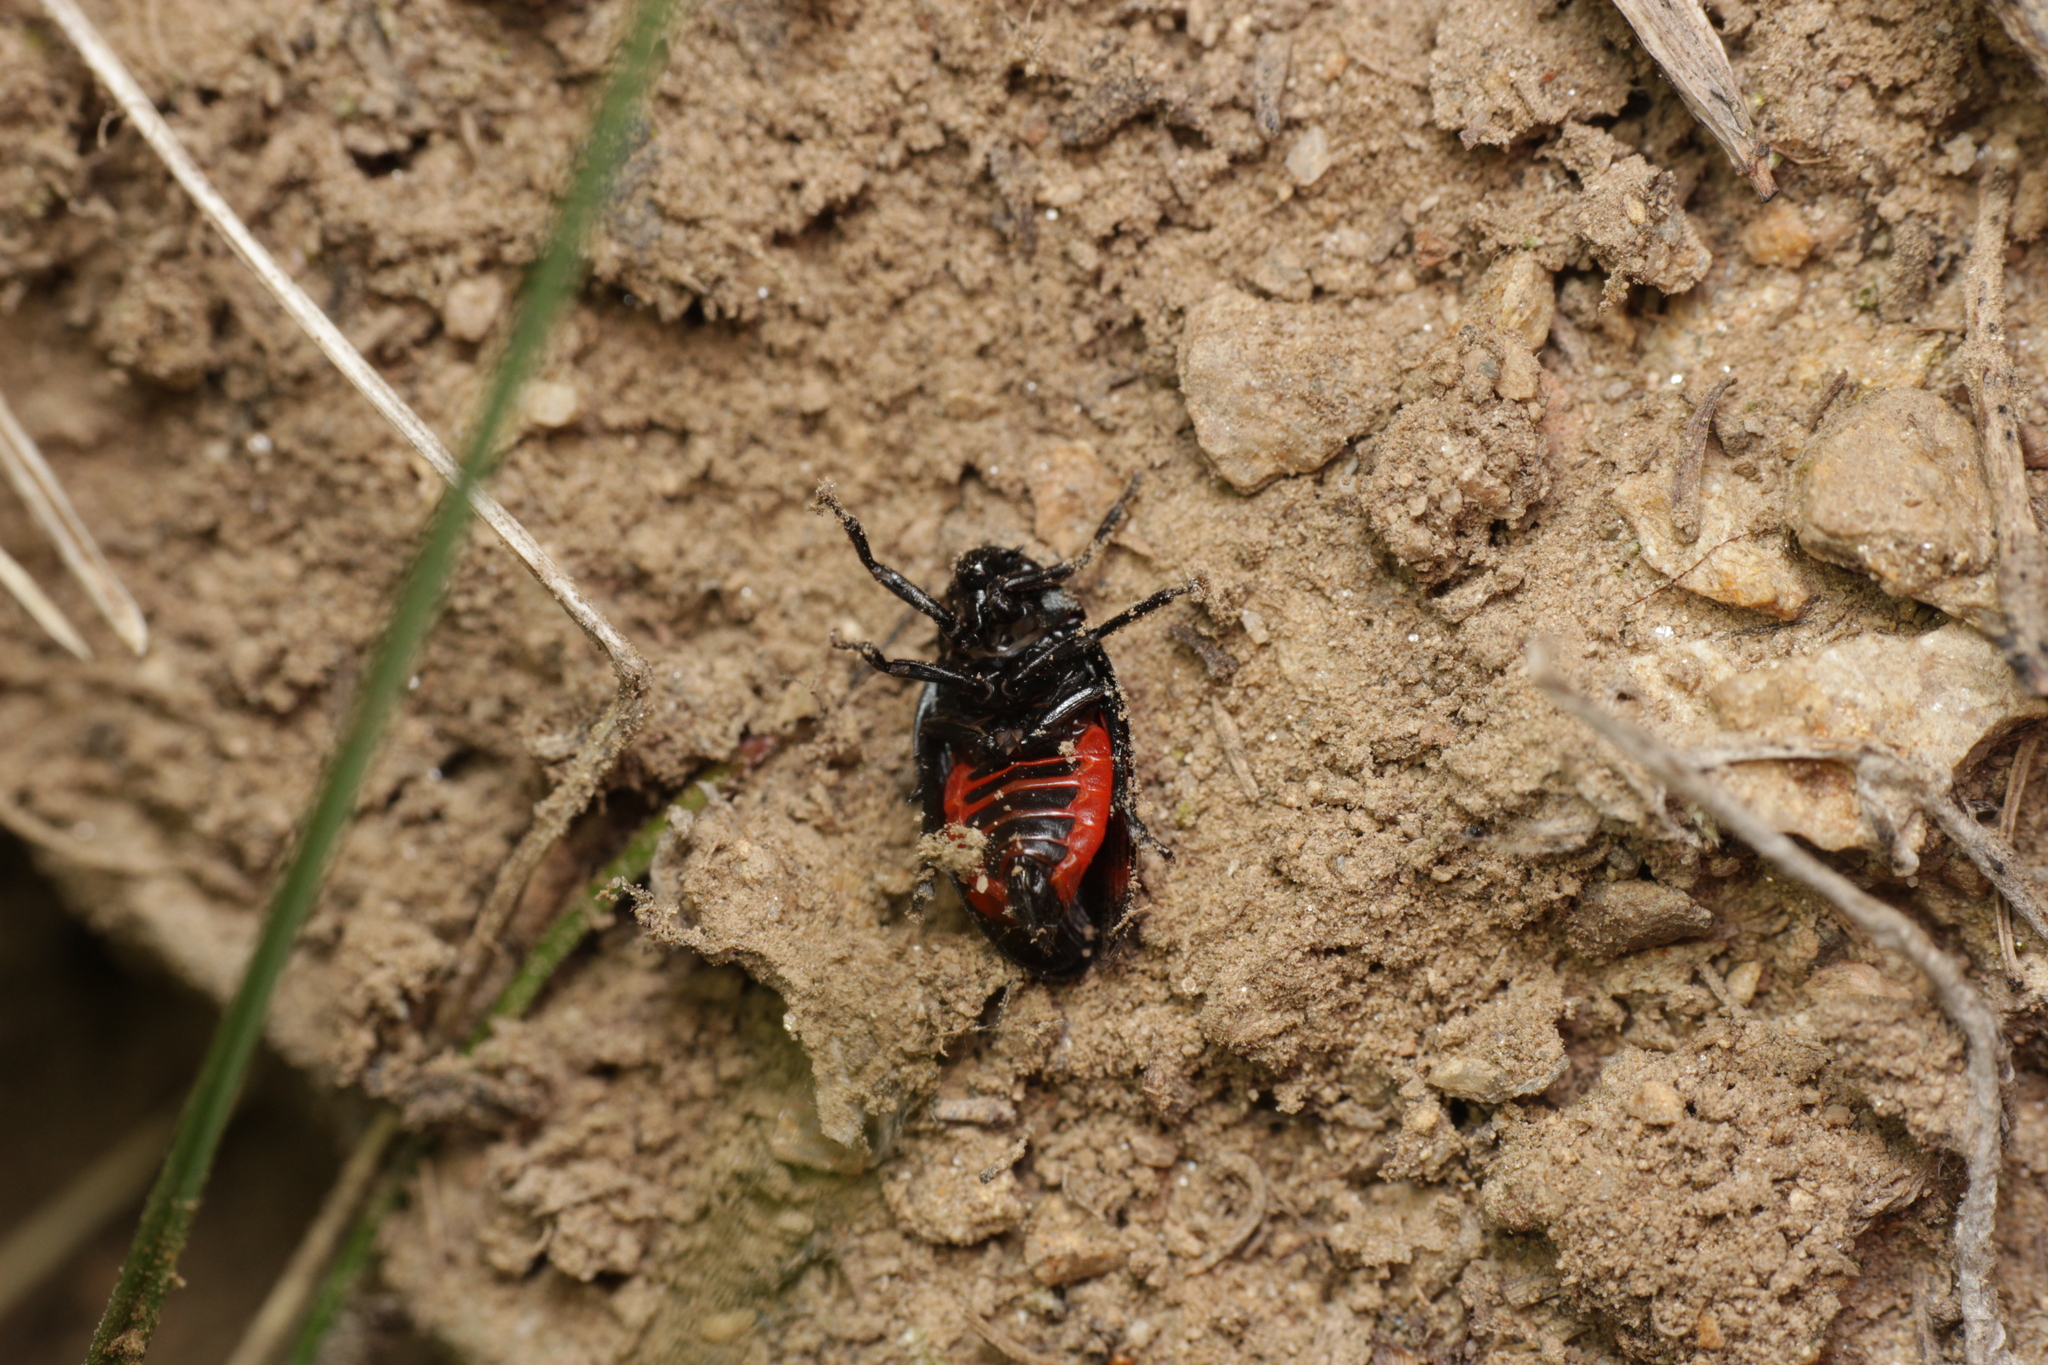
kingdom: Animalia
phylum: Arthropoda
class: Insecta
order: Hemiptera
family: Cercopidae
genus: Cercopis
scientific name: Cercopis arcuata
